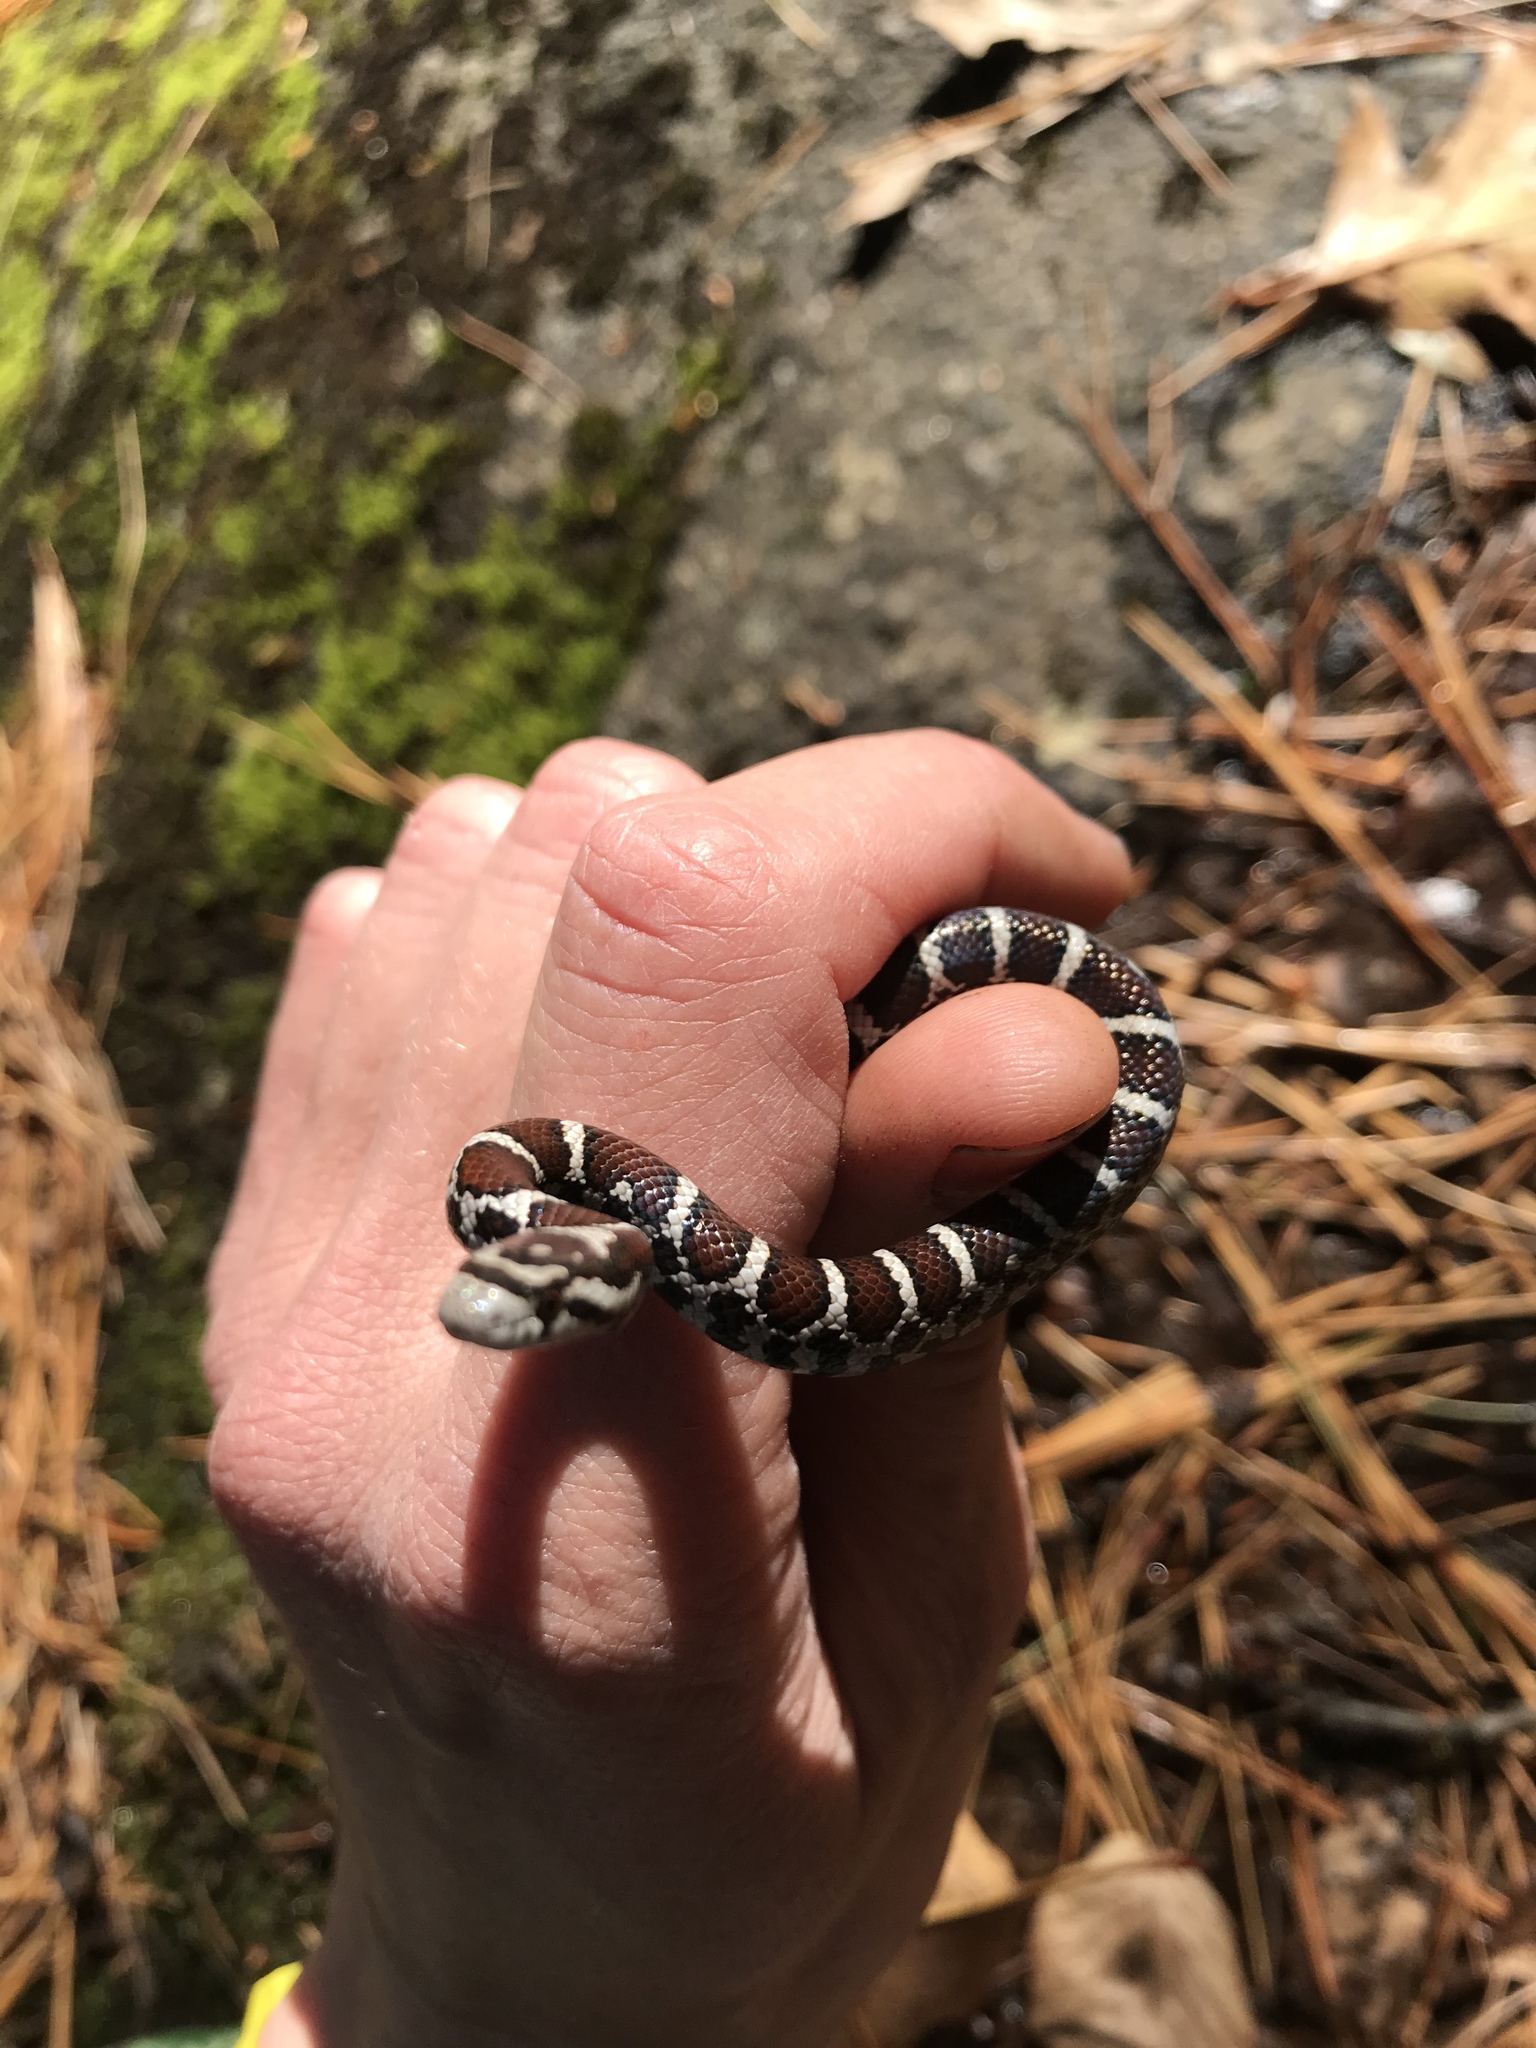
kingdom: Animalia
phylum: Chordata
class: Squamata
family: Colubridae
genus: Lampropeltis
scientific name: Lampropeltis triangulum
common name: Eastern milksnake
